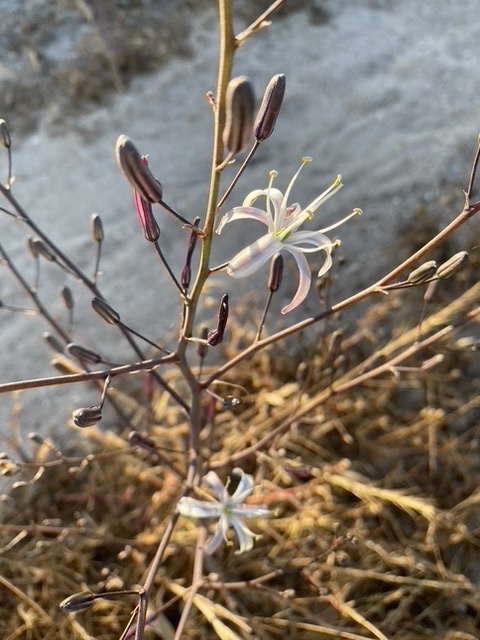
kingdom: Plantae
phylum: Tracheophyta
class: Liliopsida
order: Asparagales
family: Asparagaceae
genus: Chlorogalum
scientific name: Chlorogalum pomeridianum
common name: Amole
